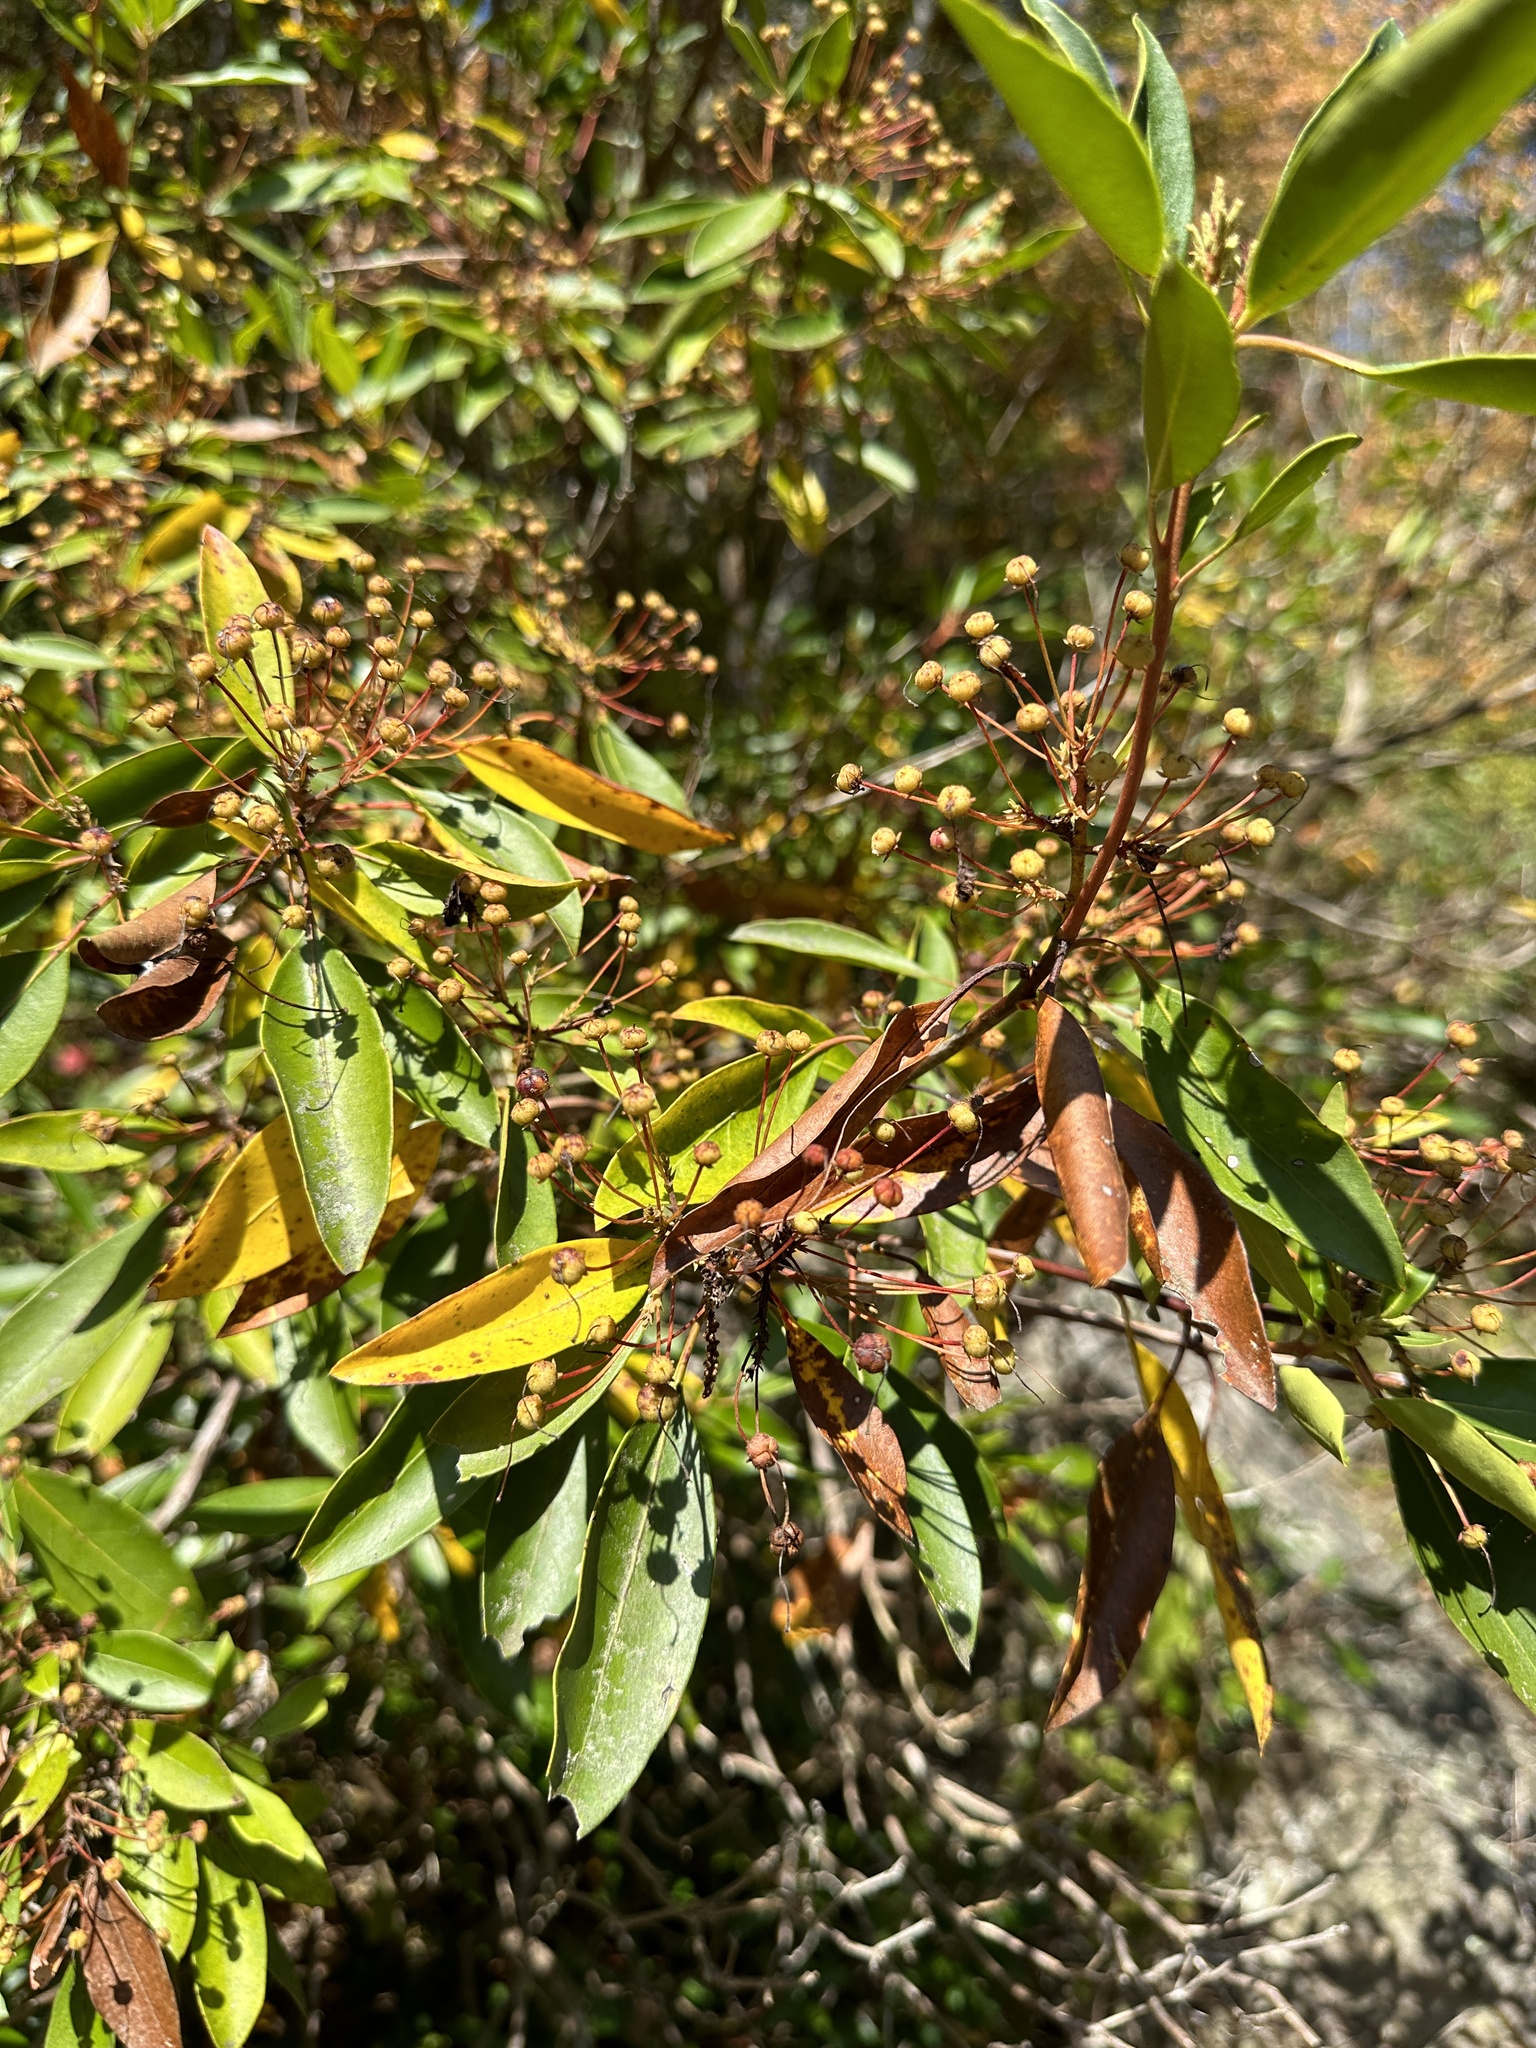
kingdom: Plantae
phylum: Tracheophyta
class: Magnoliopsida
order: Ericales
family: Ericaceae
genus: Kalmia
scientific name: Kalmia latifolia
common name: Mountain-laurel
